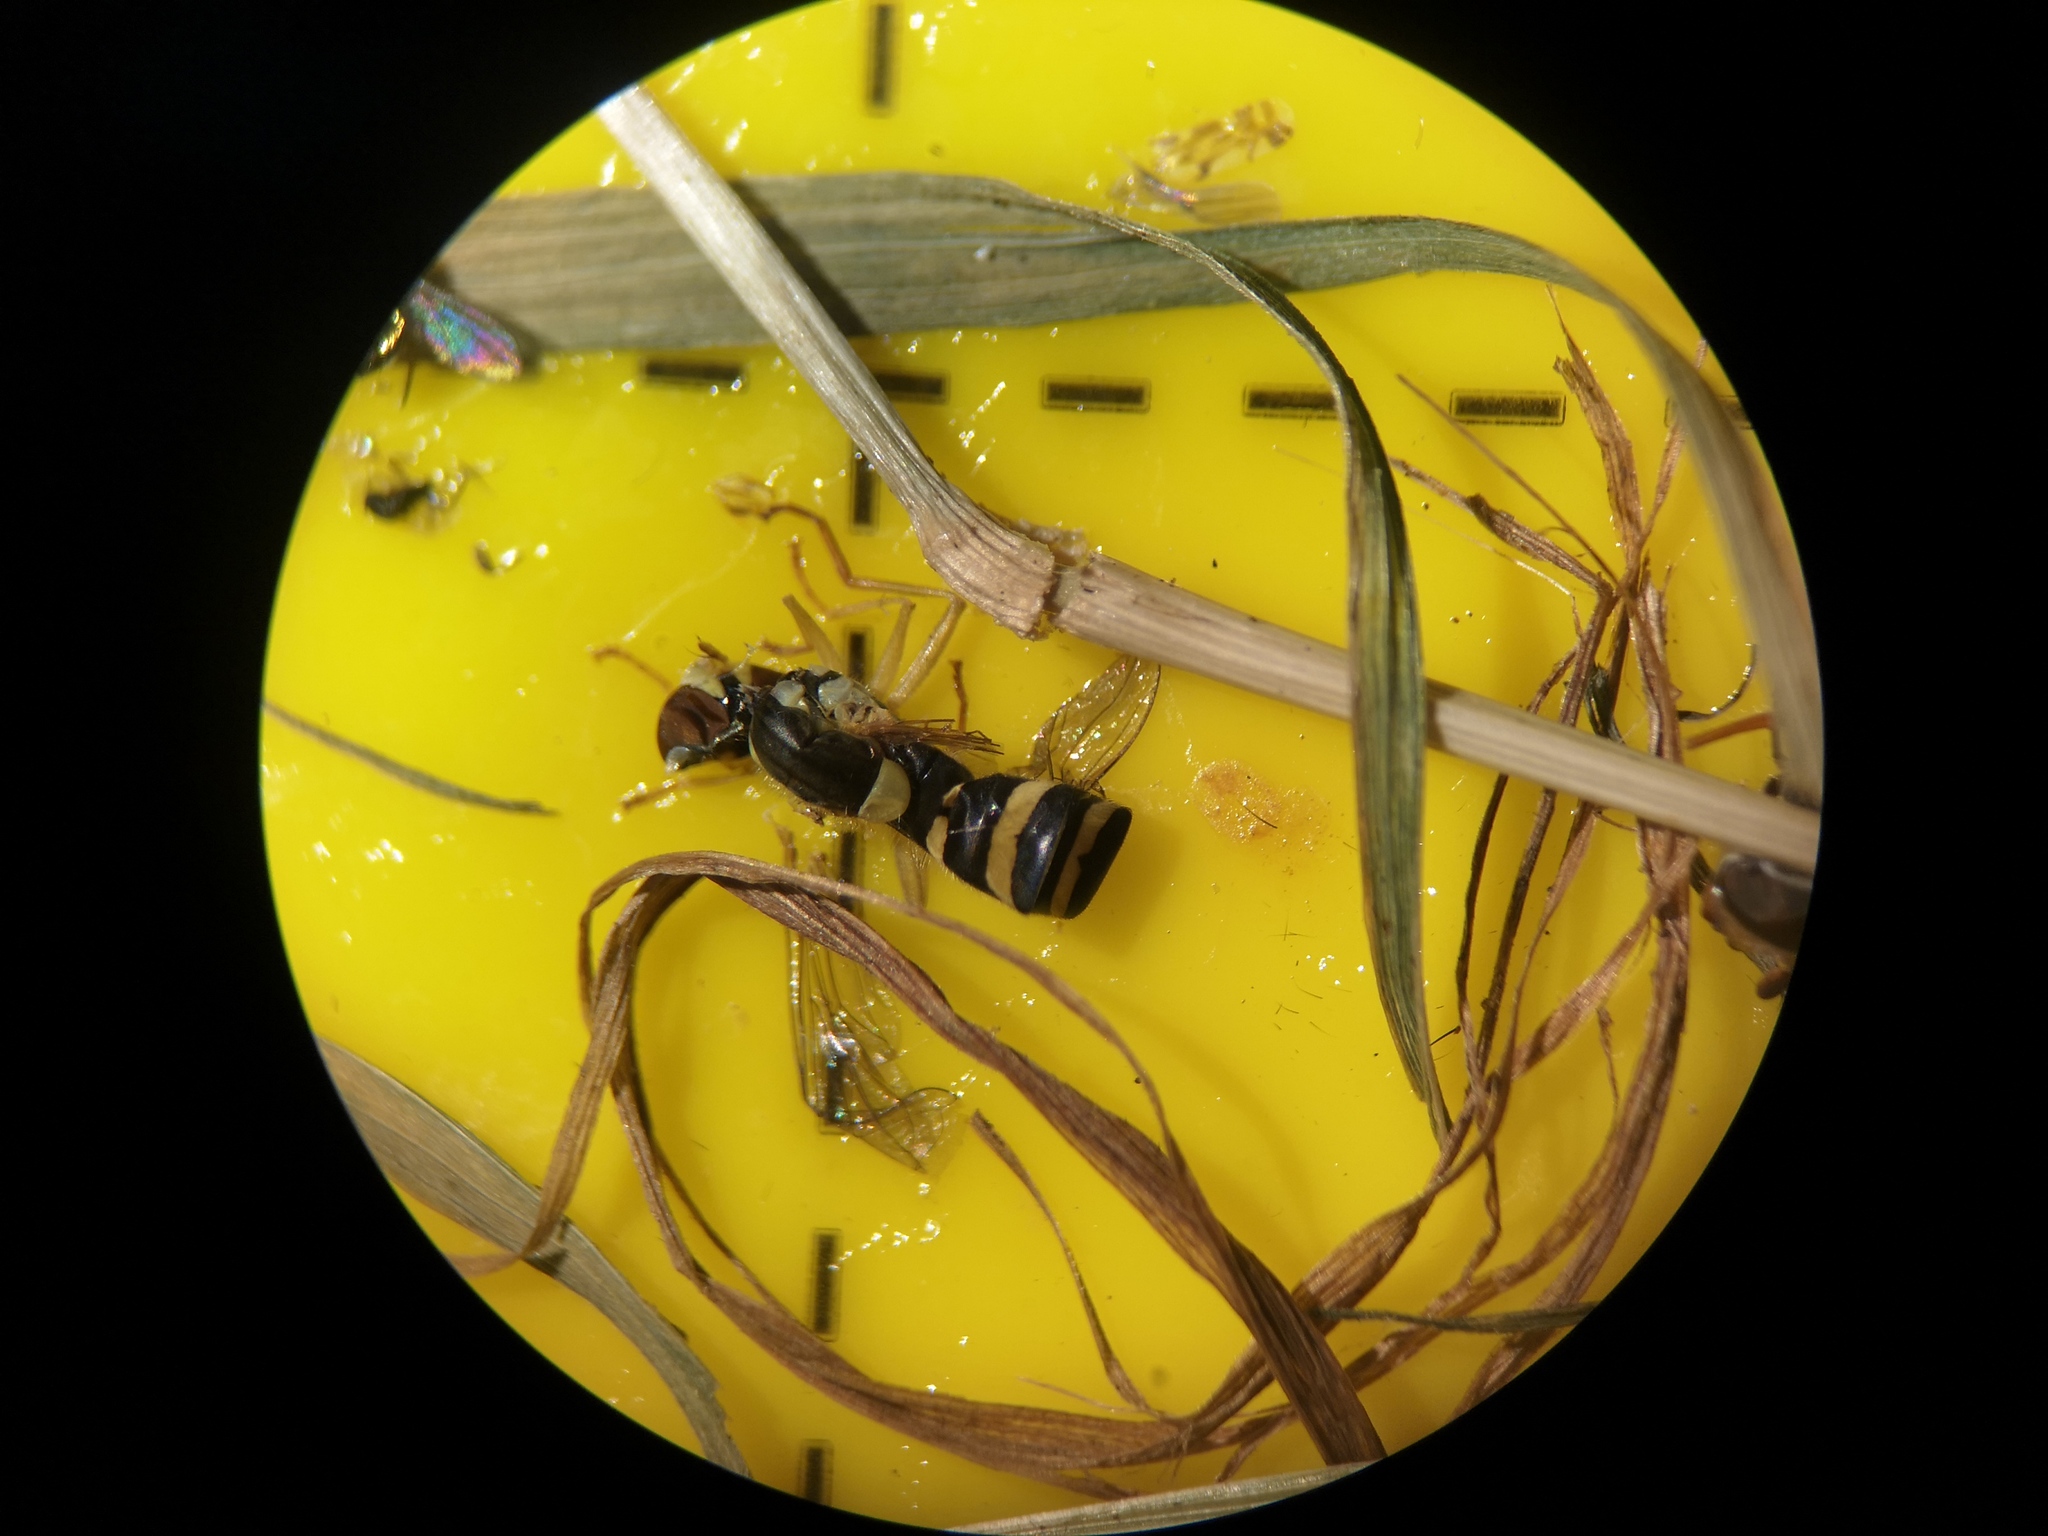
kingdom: Animalia
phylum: Arthropoda
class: Insecta
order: Diptera
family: Syrphidae
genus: Sphaerophoria
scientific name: Sphaerophoria
